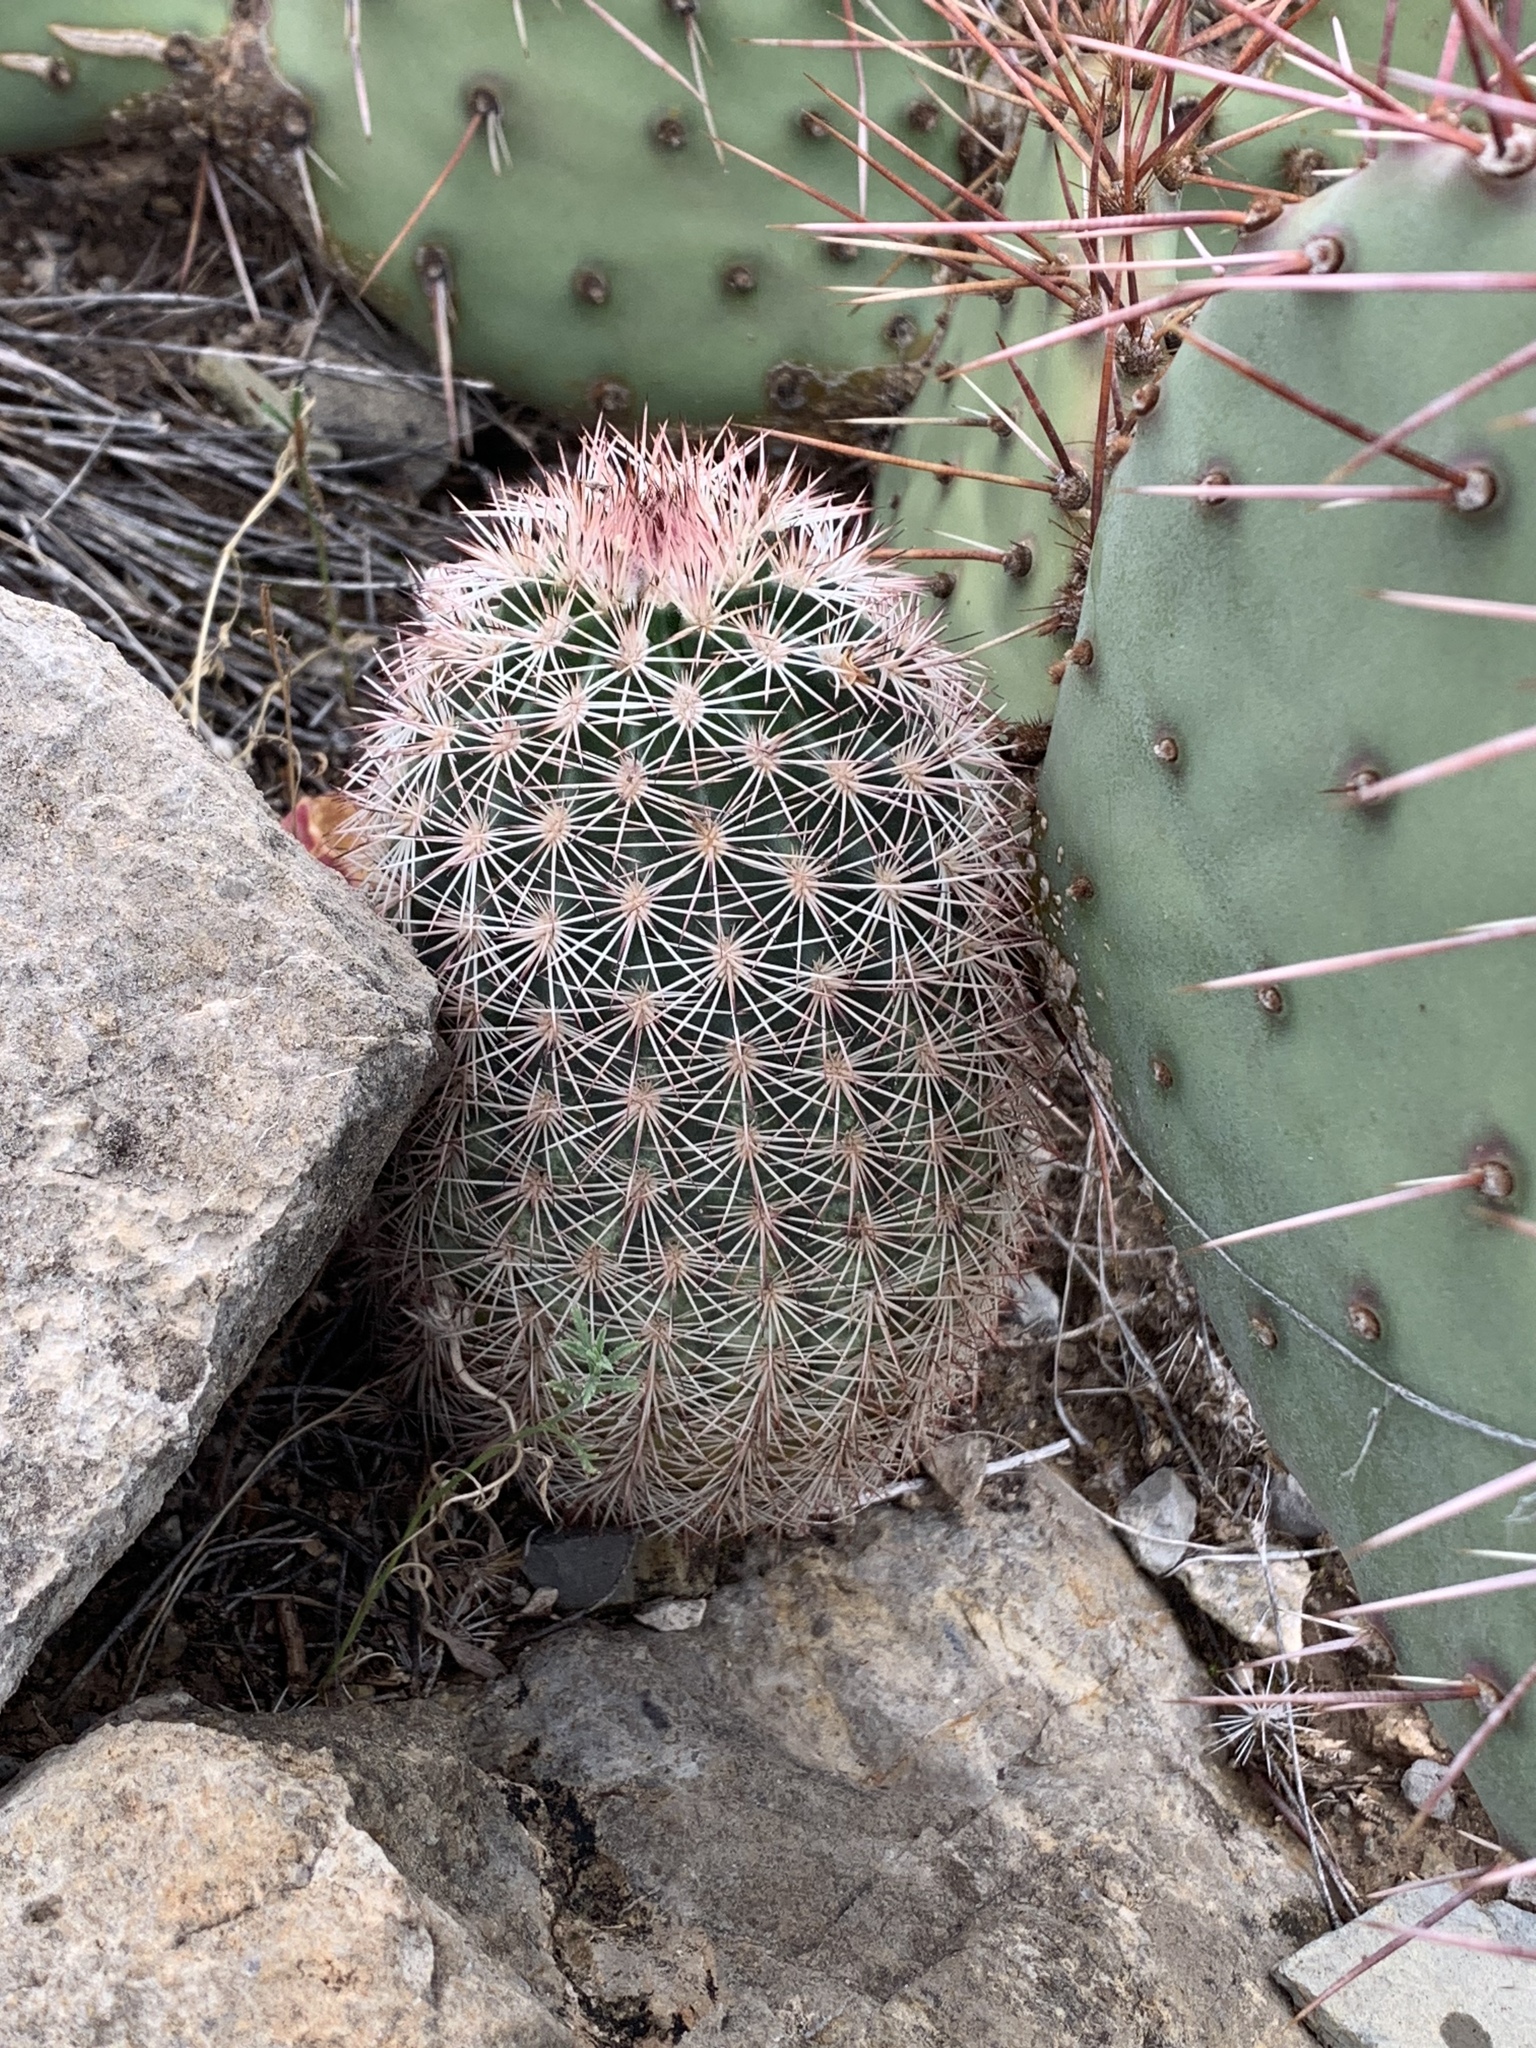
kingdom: Plantae
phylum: Tracheophyta
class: Magnoliopsida
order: Caryophyllales
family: Cactaceae
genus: Echinocereus
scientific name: Echinocereus dasyacanthus
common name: Spiny hedgehog cactus
